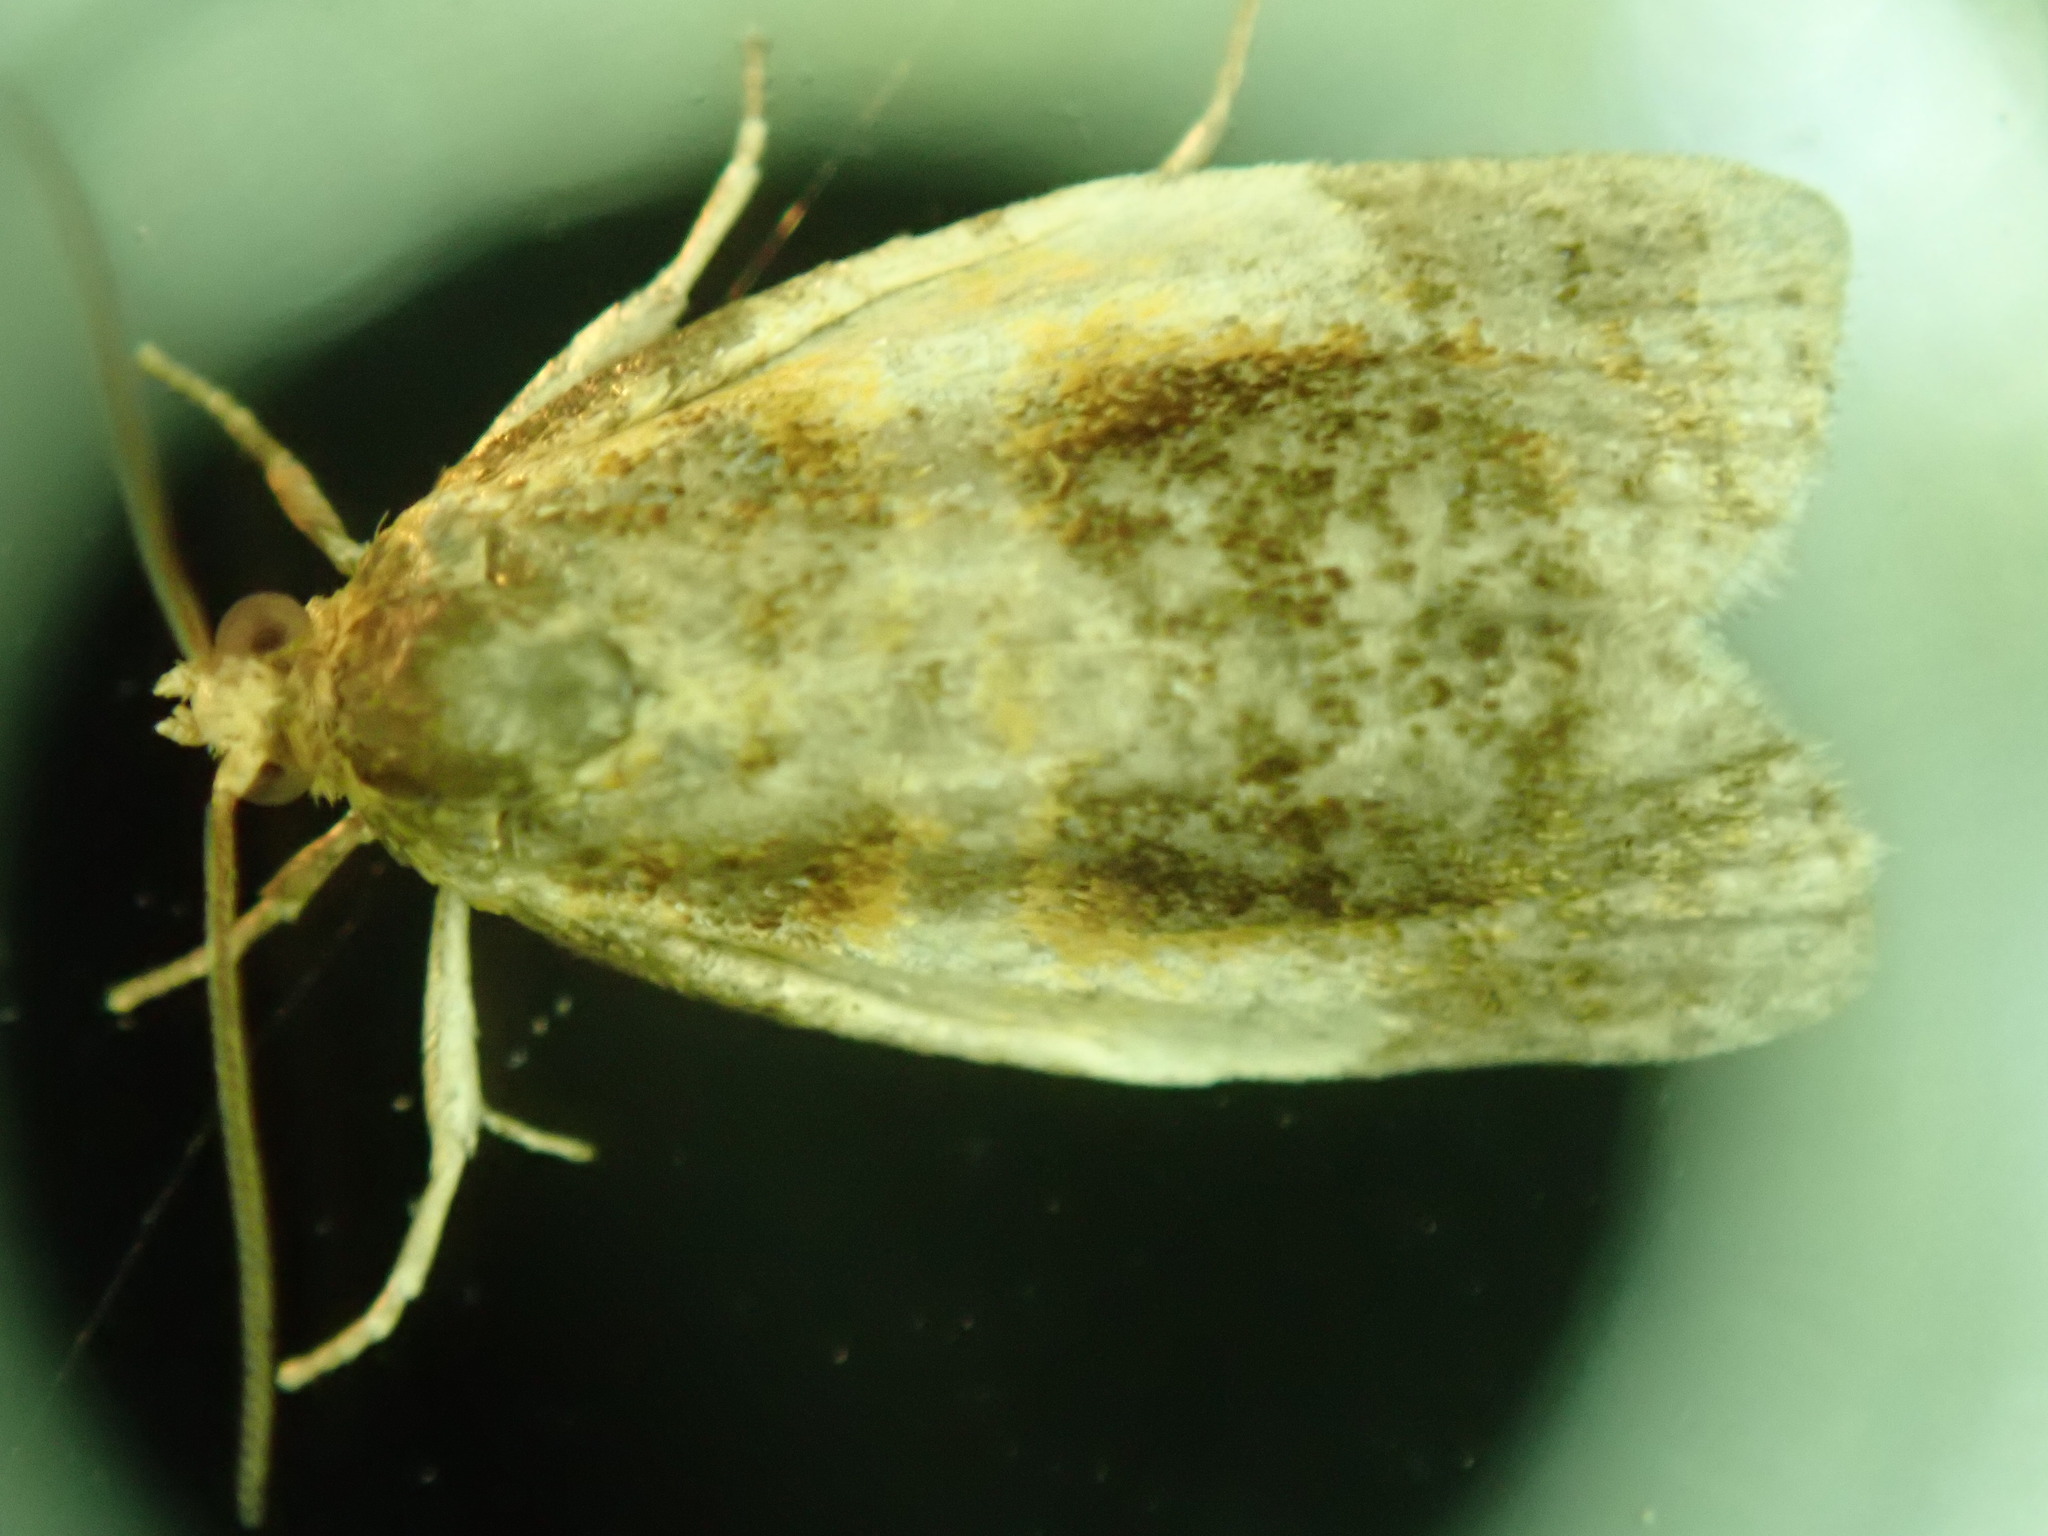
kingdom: Animalia
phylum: Arthropoda
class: Insecta
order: Lepidoptera
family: Tortricidae
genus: Clepsis
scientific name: Clepsis melaleucanus
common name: American apple tortrix
